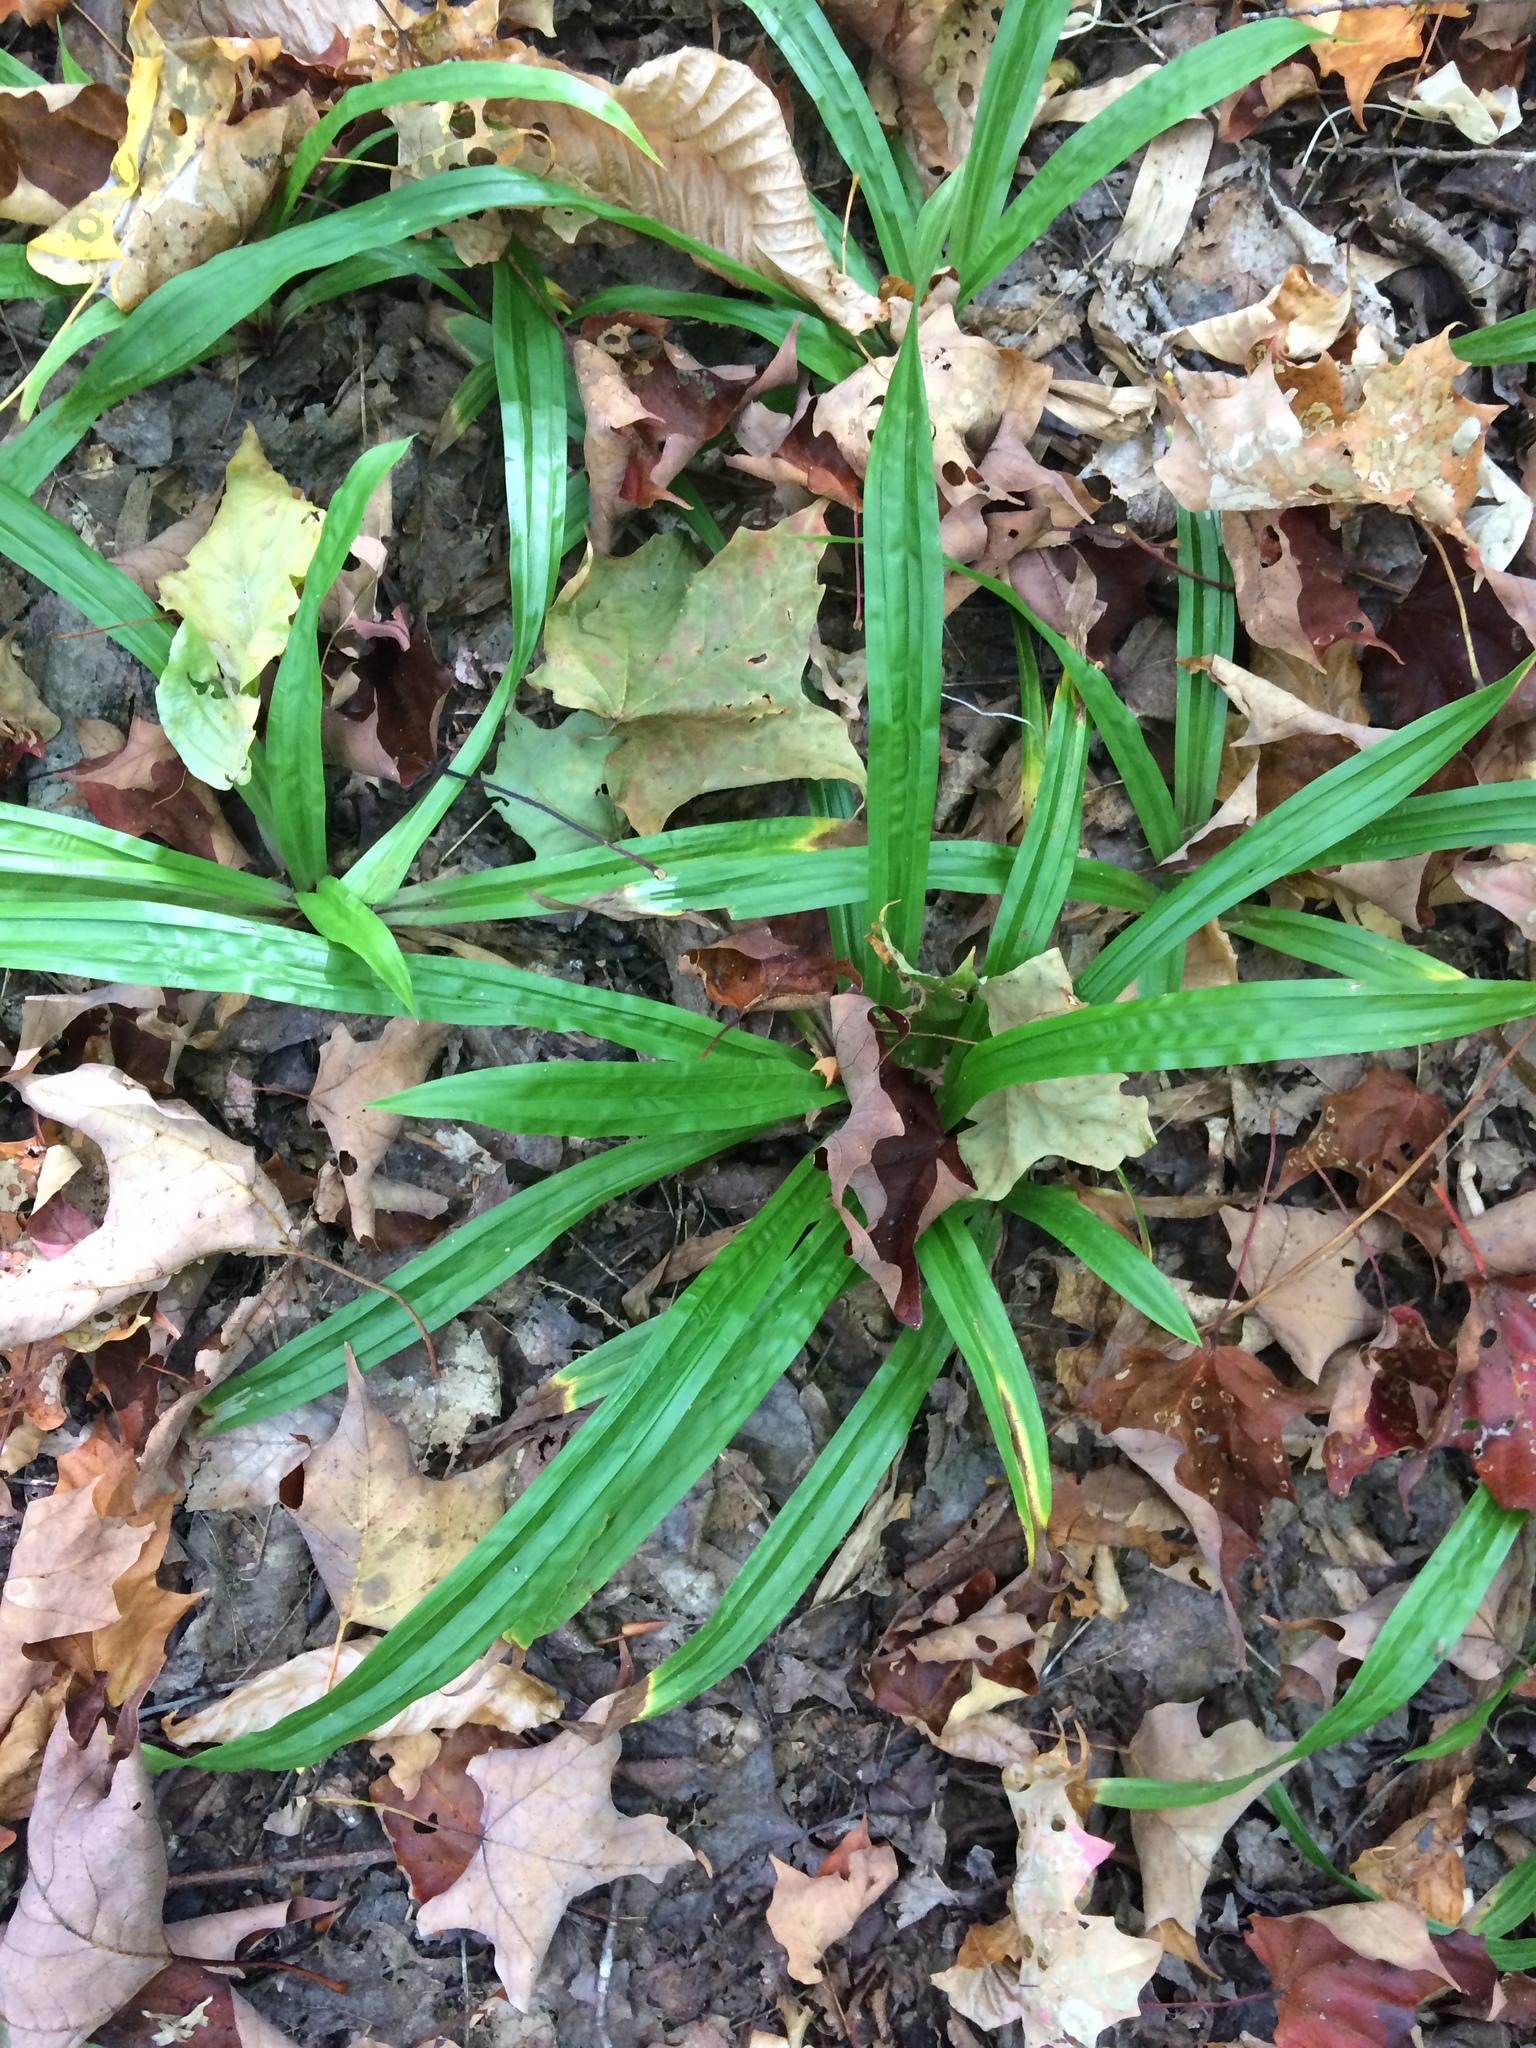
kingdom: Plantae
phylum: Tracheophyta
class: Liliopsida
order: Poales
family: Cyperaceae
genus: Carex
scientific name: Carex plantaginea
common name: Plantain-leaved sedge
